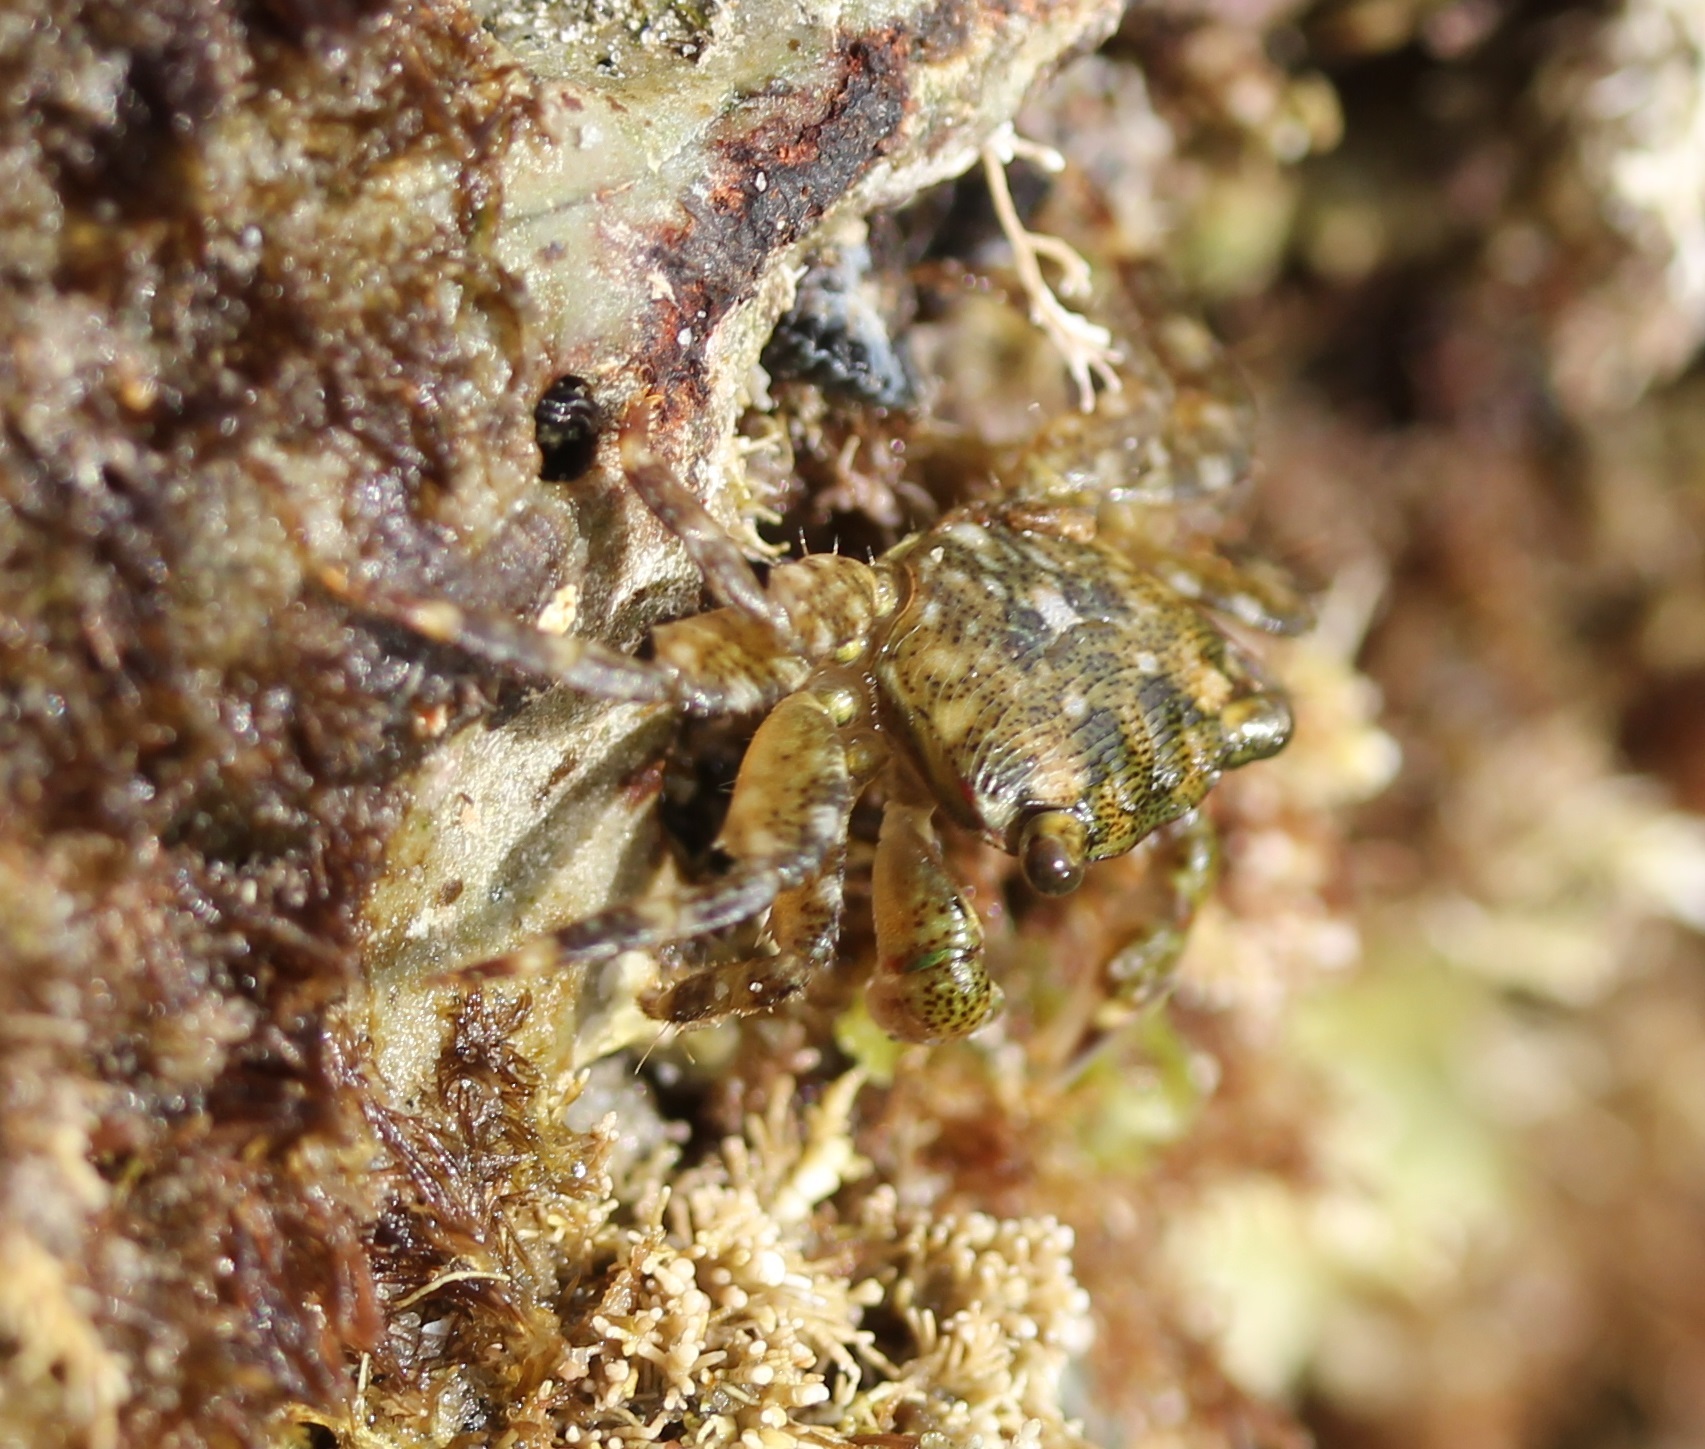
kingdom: Animalia
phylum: Arthropoda
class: Malacostraca
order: Decapoda
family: Grapsidae
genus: Pachygrapsus
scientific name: Pachygrapsus crassipes
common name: Striped shore crab
